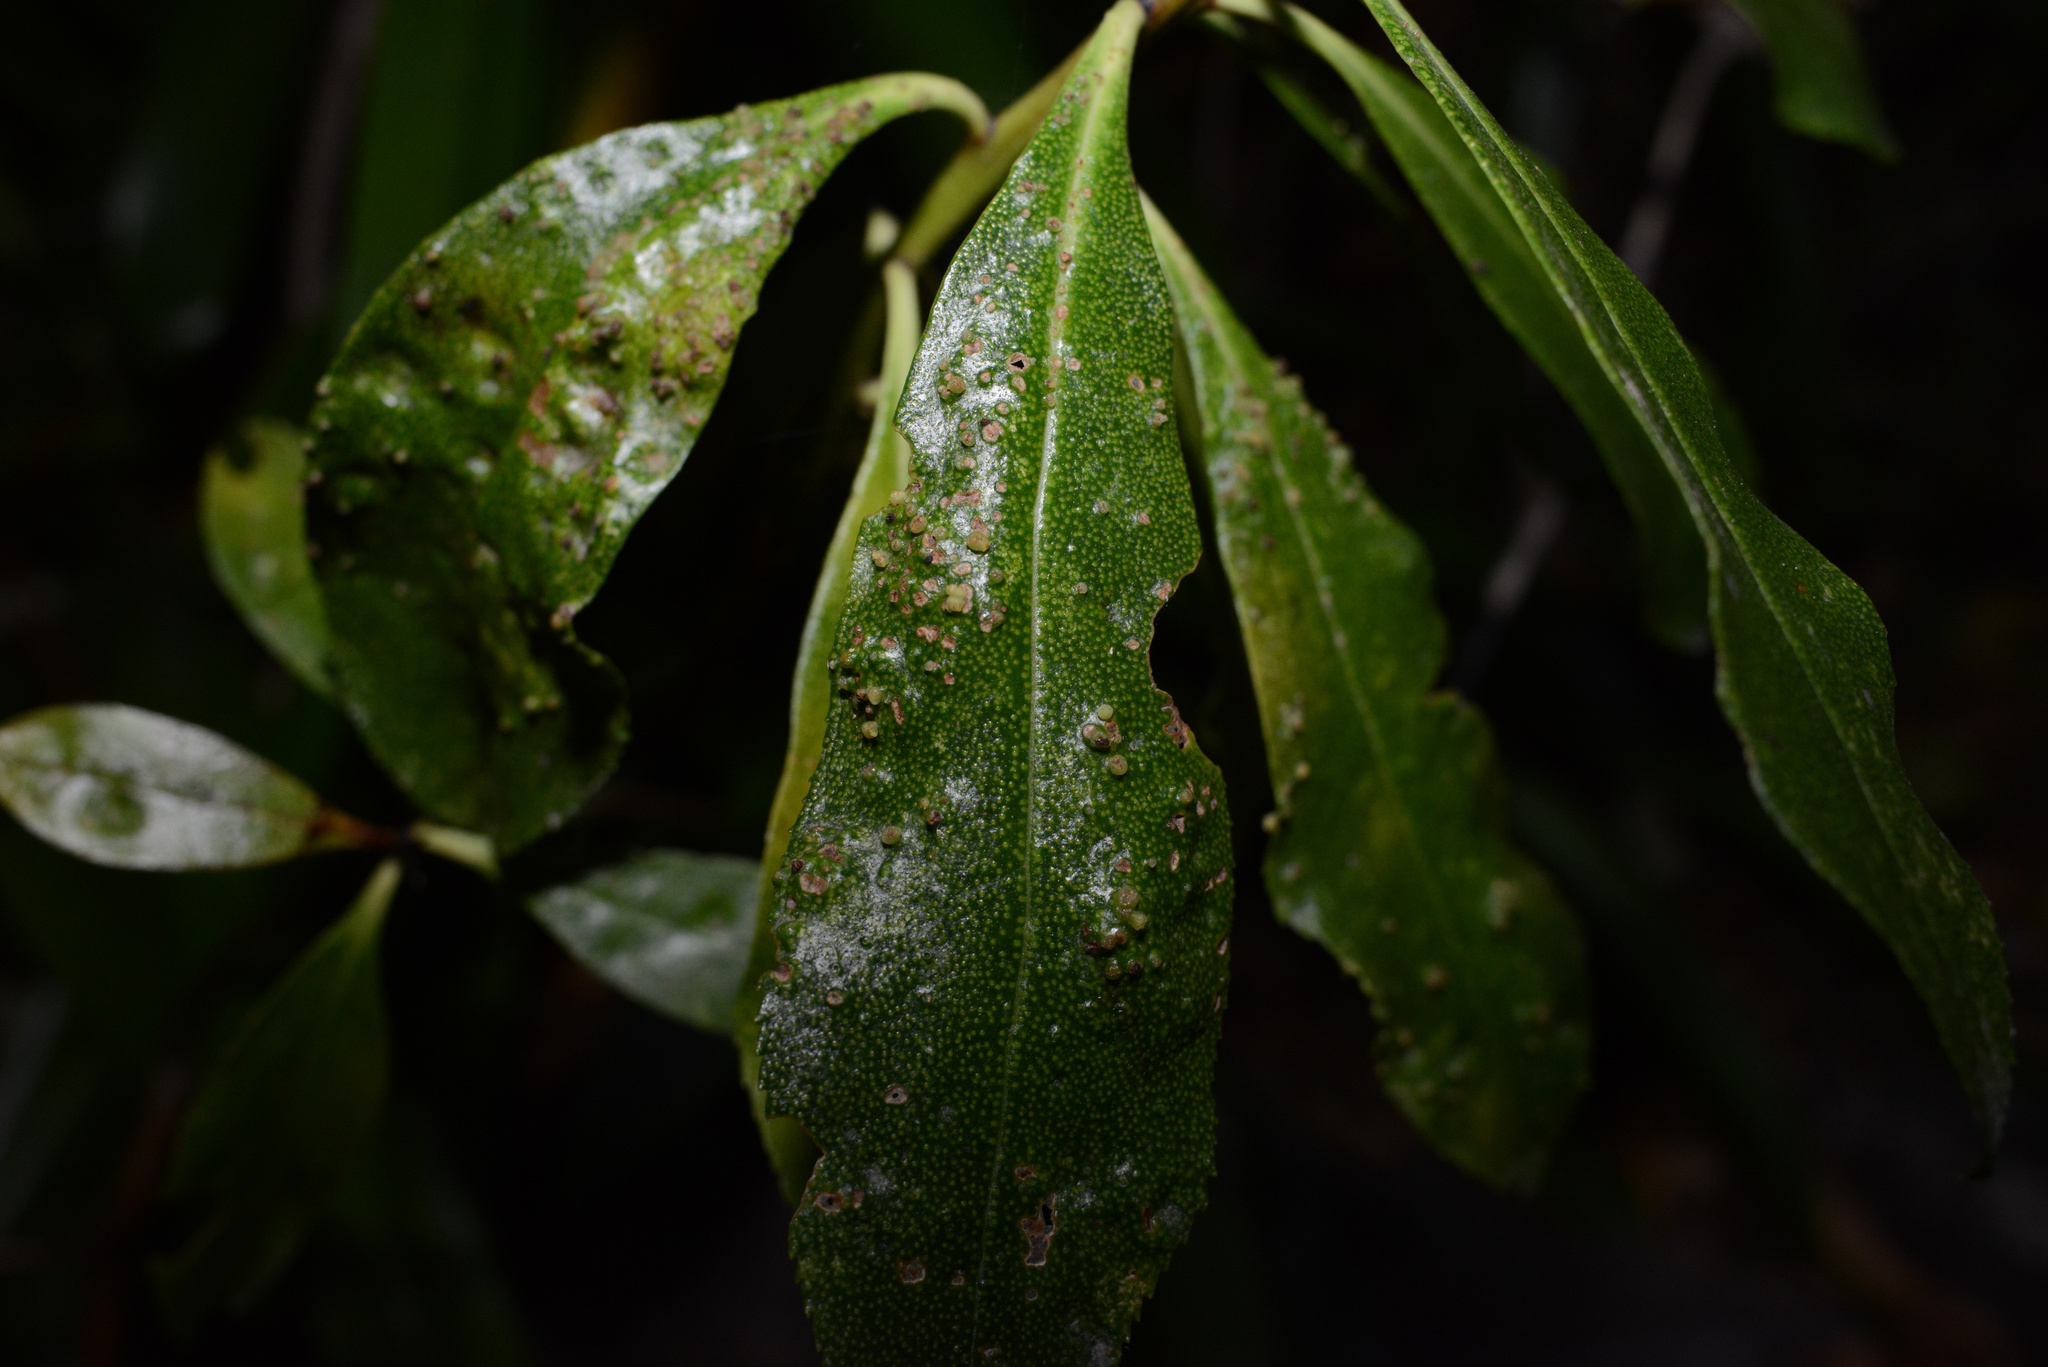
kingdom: Animalia
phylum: Arthropoda
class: Arachnida
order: Trombidiformes
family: Eriophyidae
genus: Aceria
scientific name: Aceria healyi
